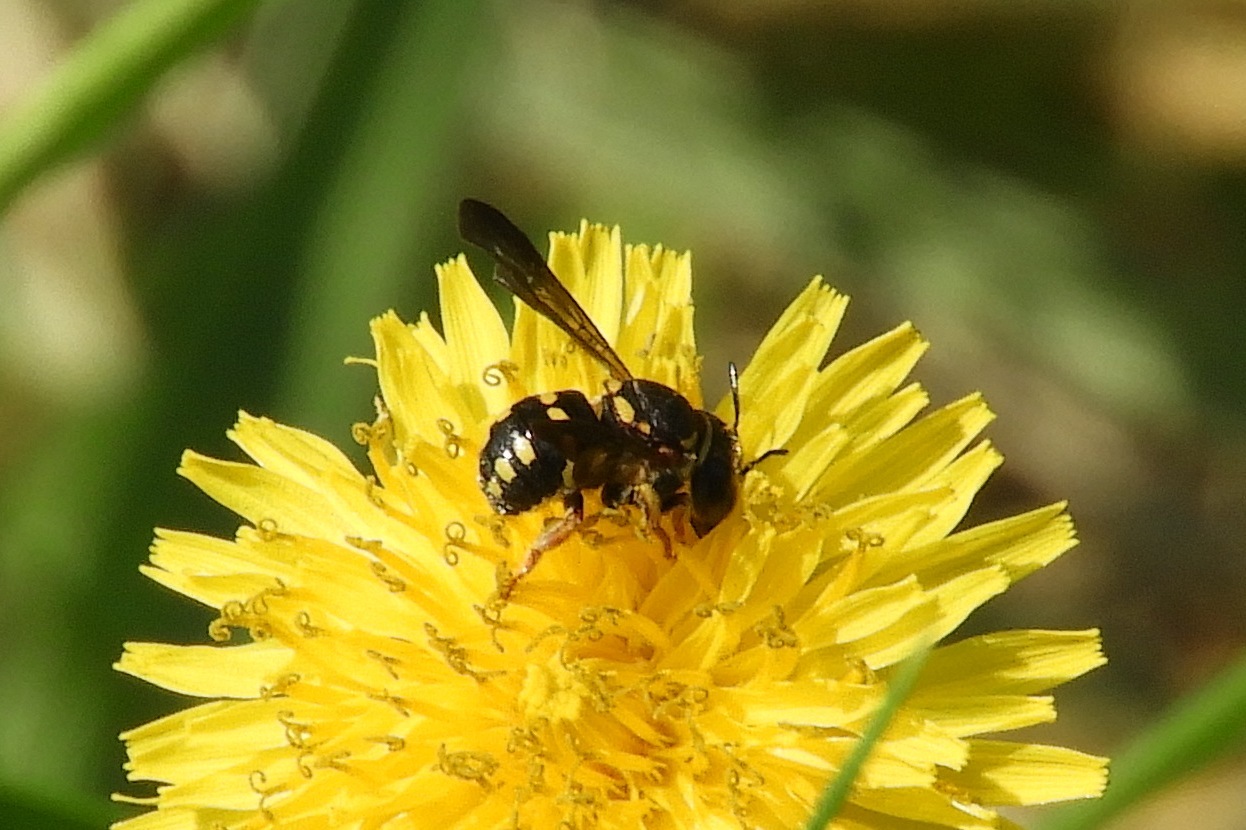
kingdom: Animalia
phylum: Arthropoda
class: Insecta
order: Hymenoptera
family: Megachilidae
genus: Anthidiellum
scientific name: Anthidiellum notatum
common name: Northern rotund-resin bee
